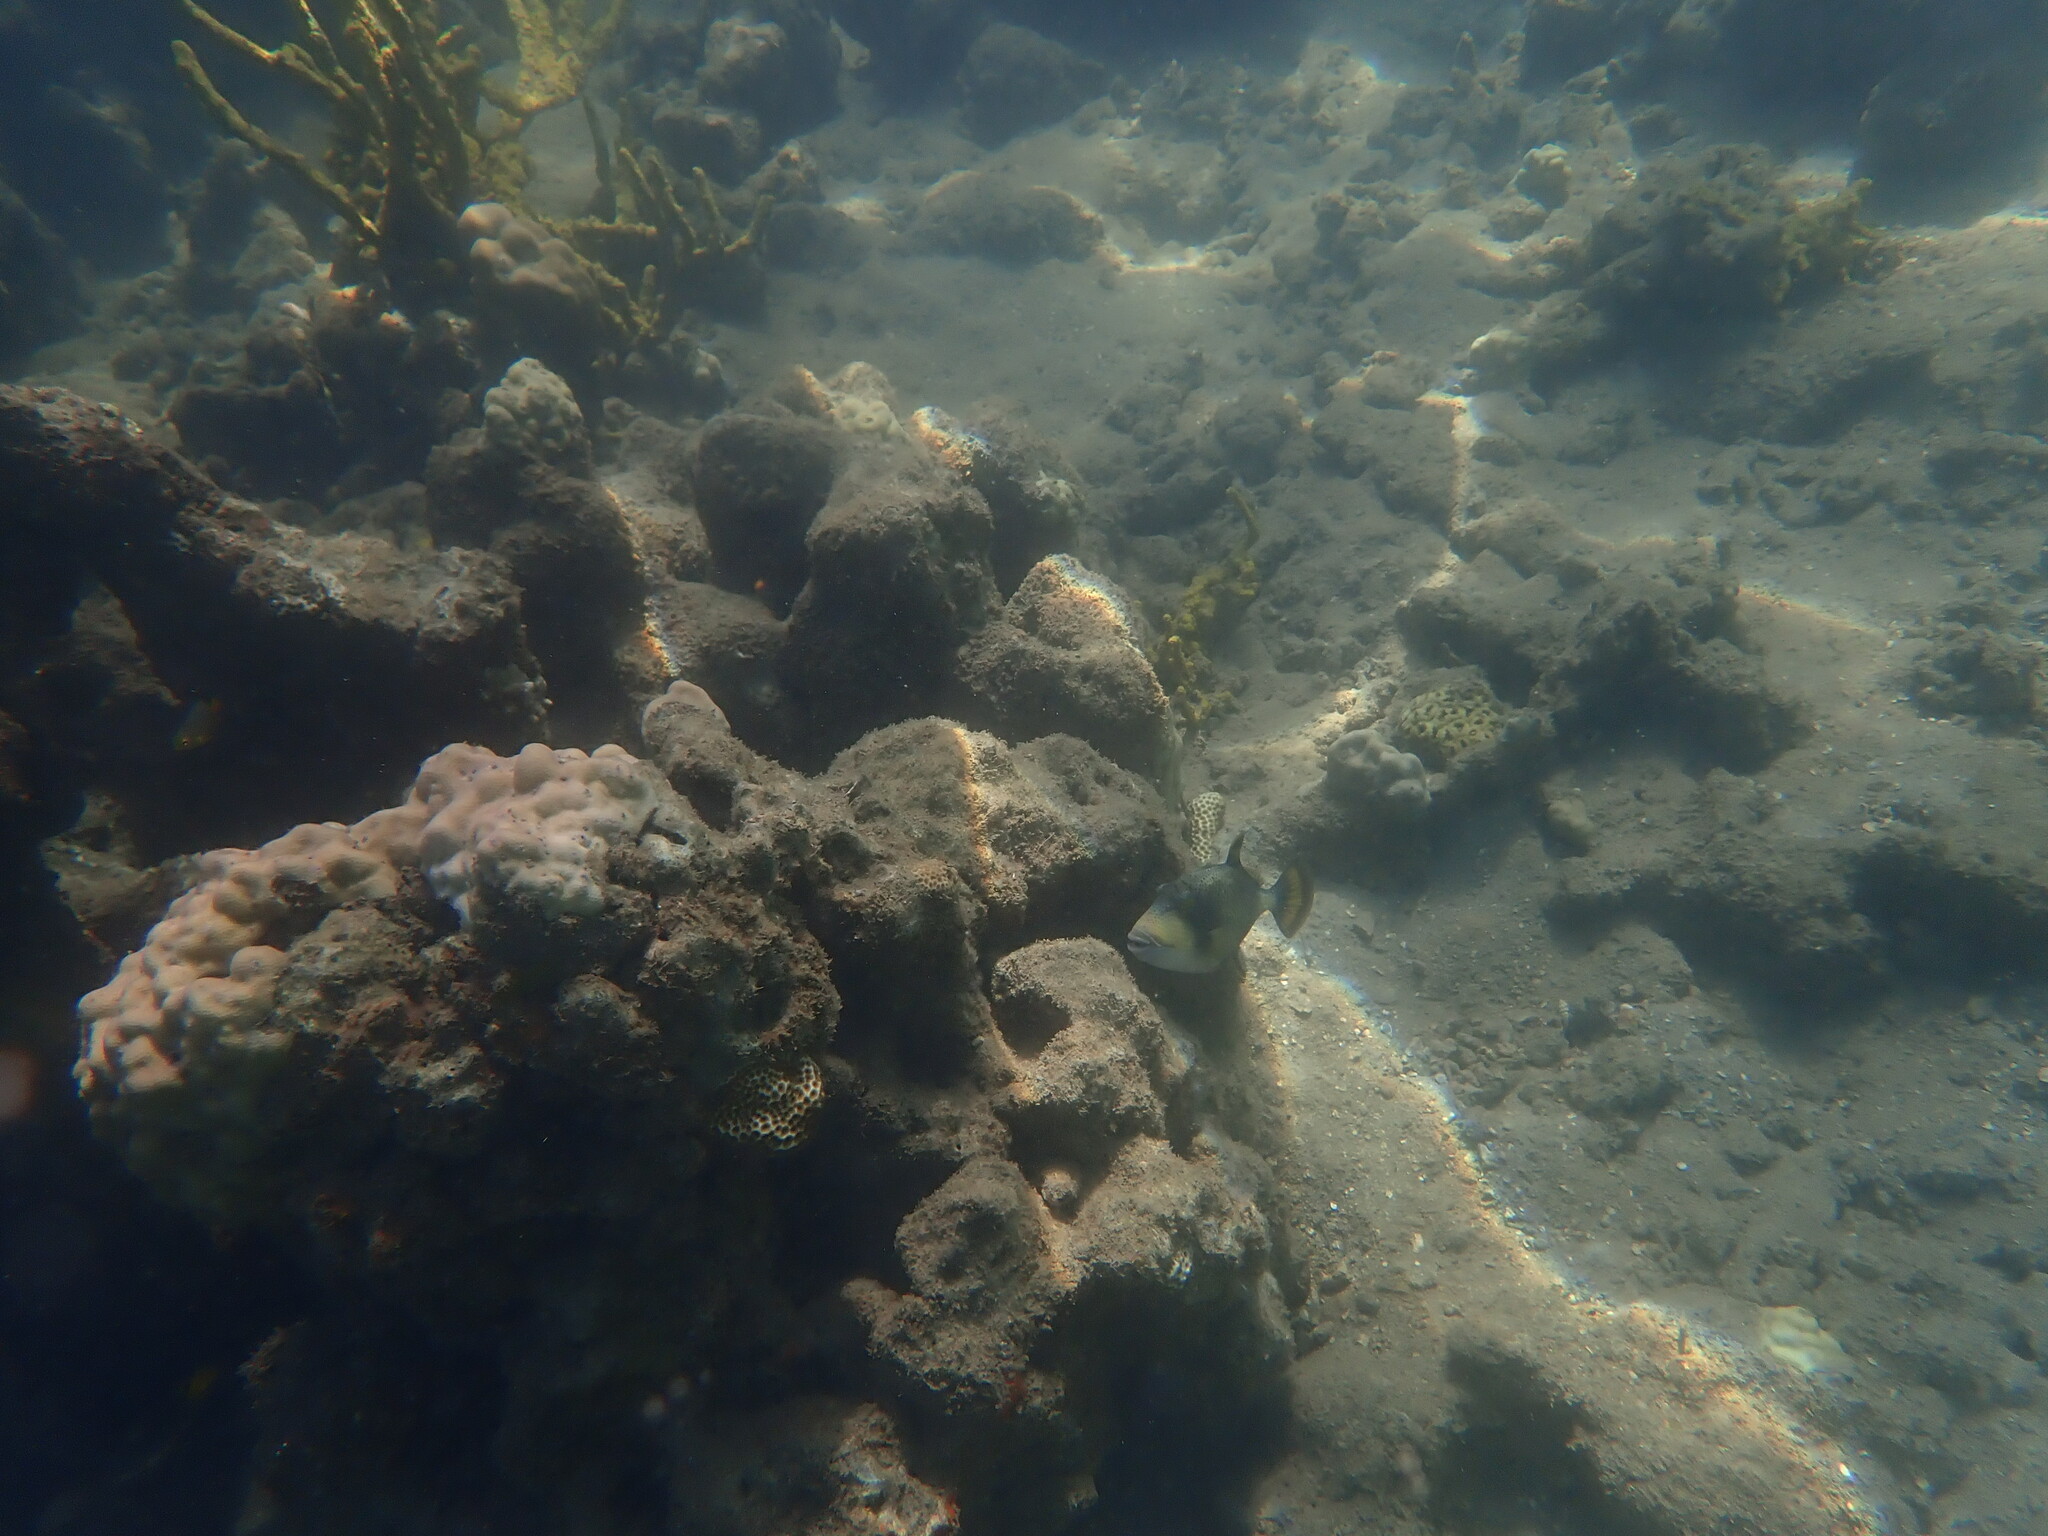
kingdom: Animalia
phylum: Chordata
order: Tetraodontiformes
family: Balistidae
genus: Balistoides
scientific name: Balistoides viridescens
